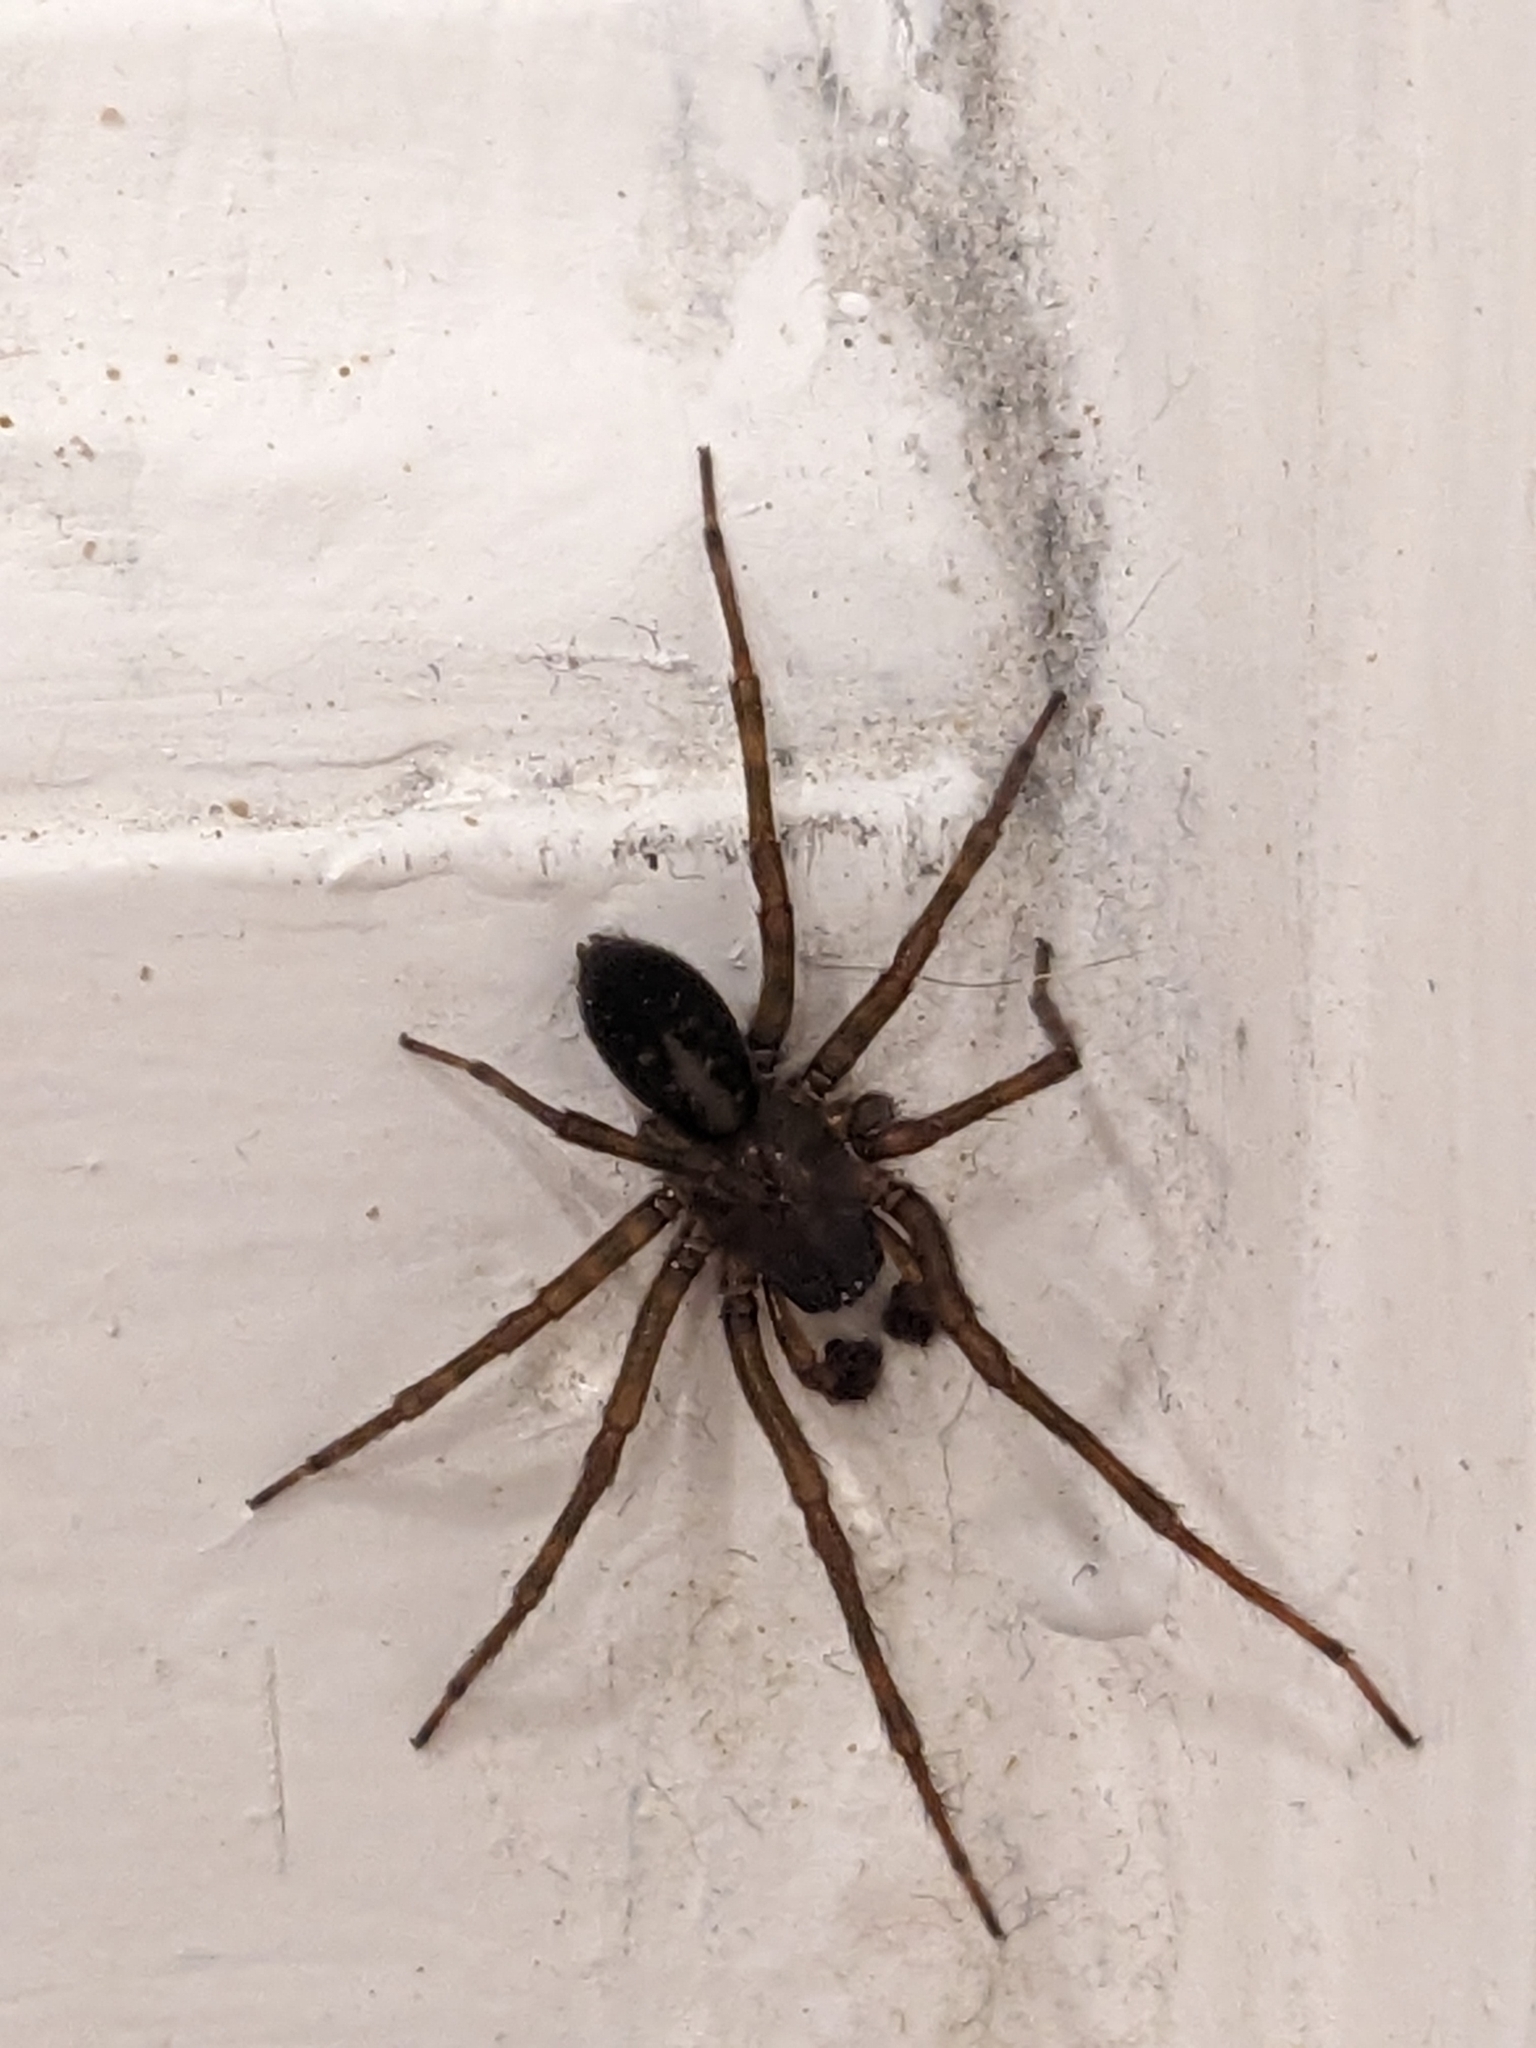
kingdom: Animalia
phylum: Arthropoda
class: Arachnida
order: Araneae
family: Amaurobiidae
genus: Amaurobius
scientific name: Amaurobius ferox
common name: Black laceweaver
